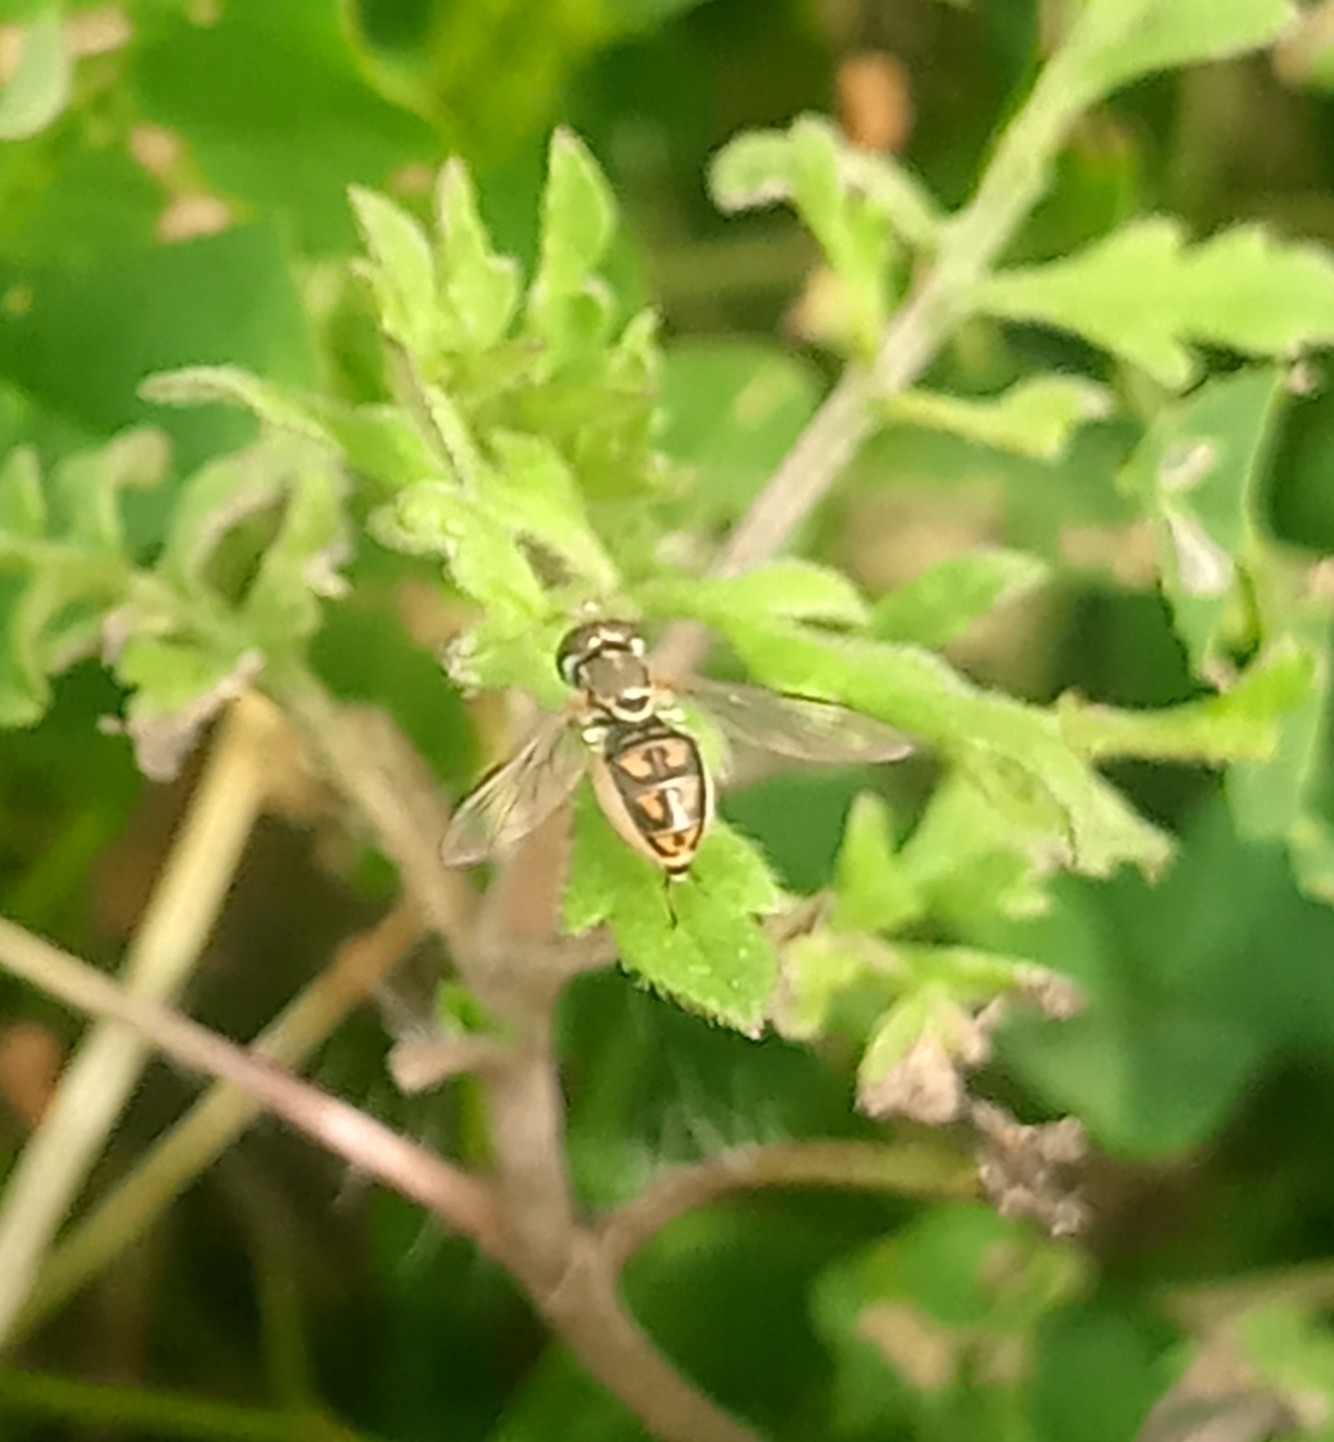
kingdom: Animalia
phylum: Arthropoda
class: Insecta
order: Diptera
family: Syrphidae
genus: Toxomerus
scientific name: Toxomerus marginatus
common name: Syrphid fly
